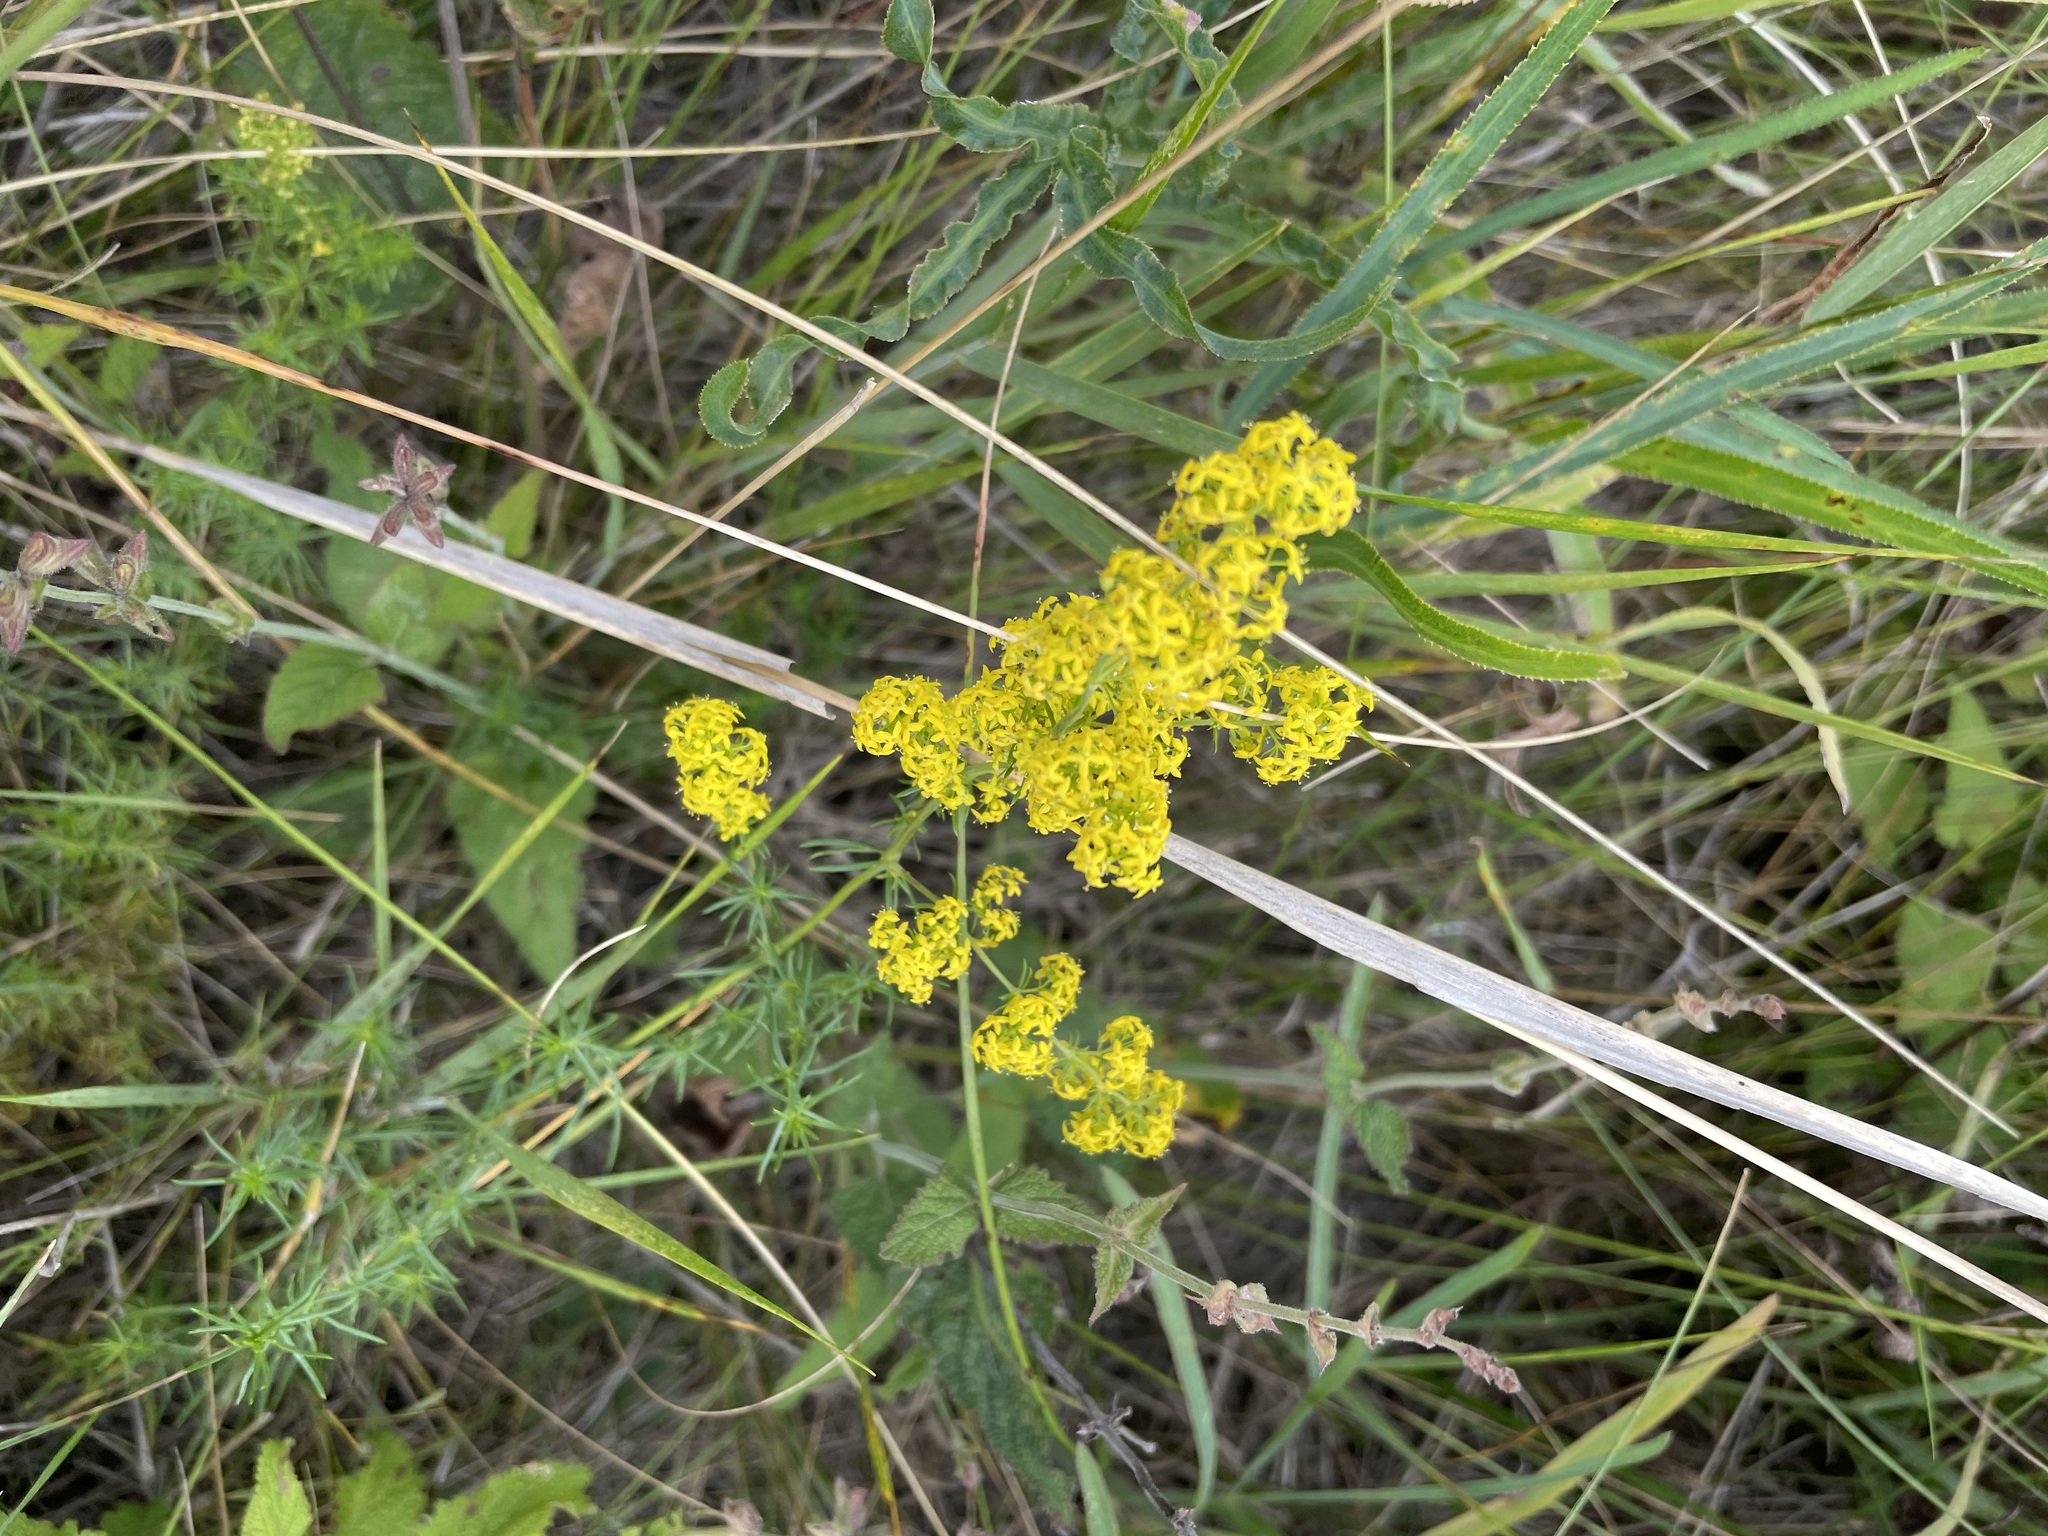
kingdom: Plantae
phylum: Tracheophyta
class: Magnoliopsida
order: Gentianales
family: Rubiaceae
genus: Galium
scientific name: Galium verum
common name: Lady's bedstraw
